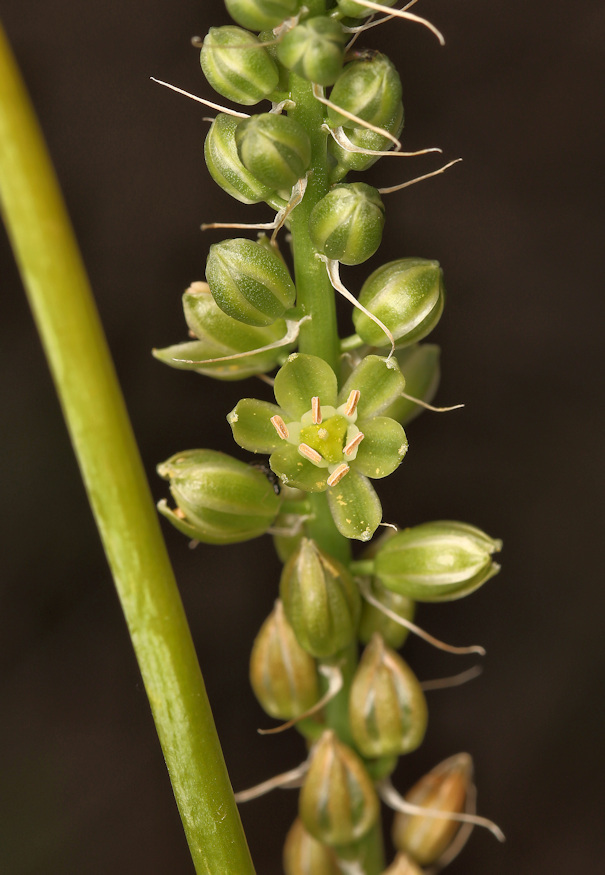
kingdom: Plantae
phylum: Tracheophyta
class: Liliopsida
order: Asparagales
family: Asparagaceae
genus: Albuca
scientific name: Albuca virens
